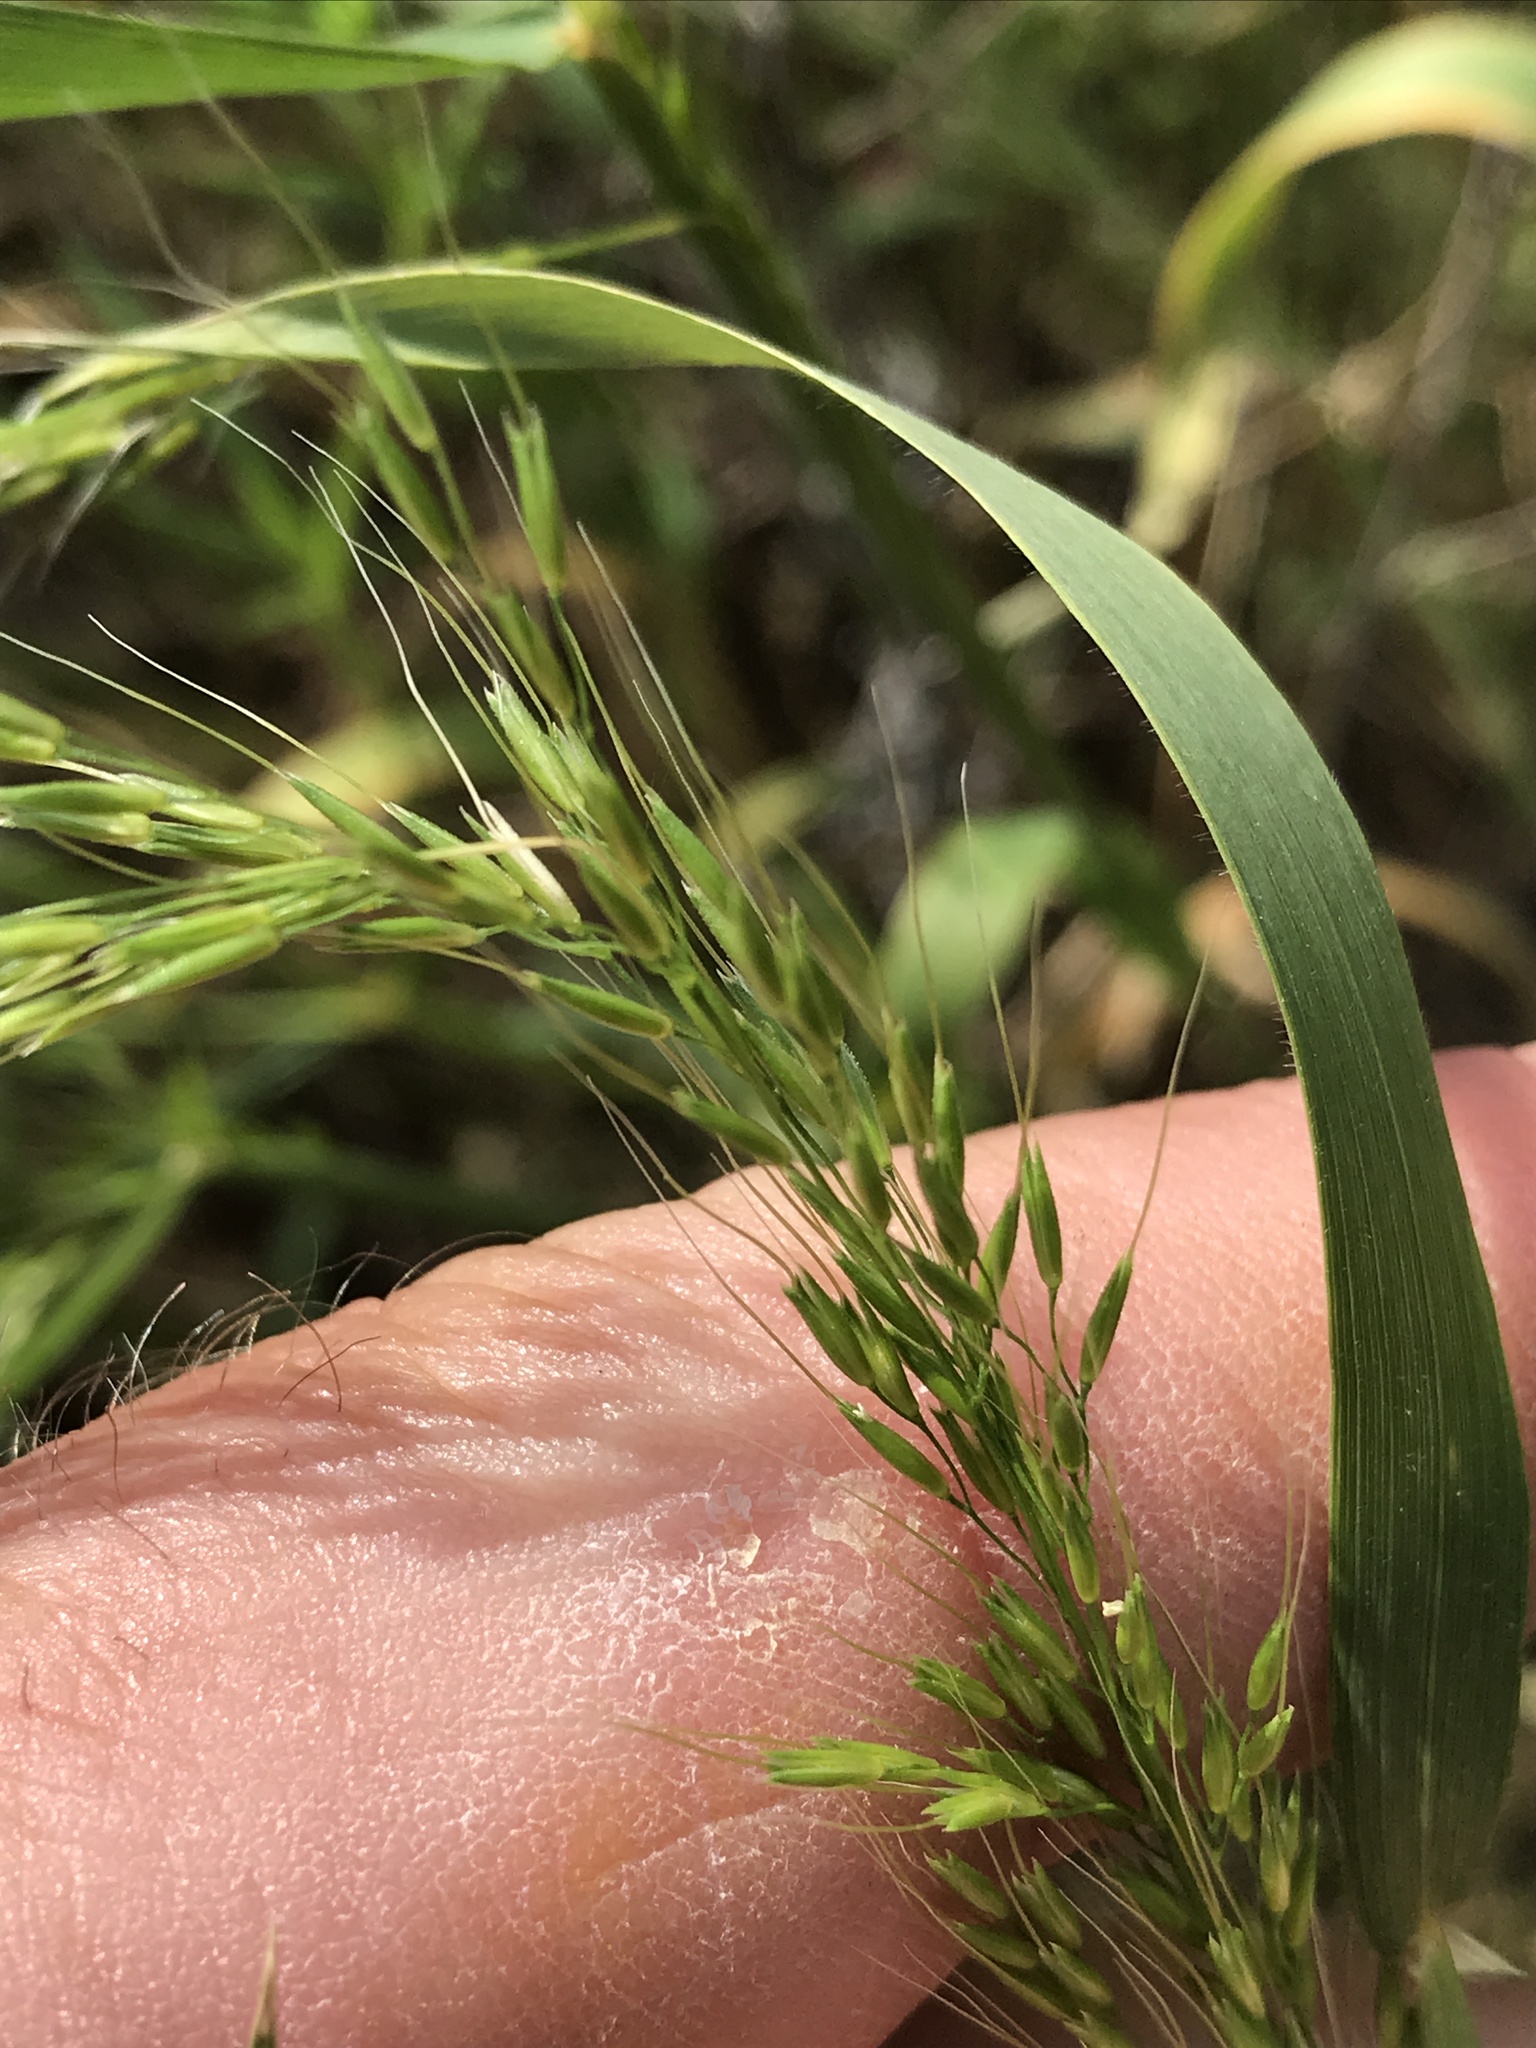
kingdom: Plantae
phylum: Tracheophyta
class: Liliopsida
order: Poales
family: Poaceae
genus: Limnodea
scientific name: Limnodea arkansana
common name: Ozark-grass
